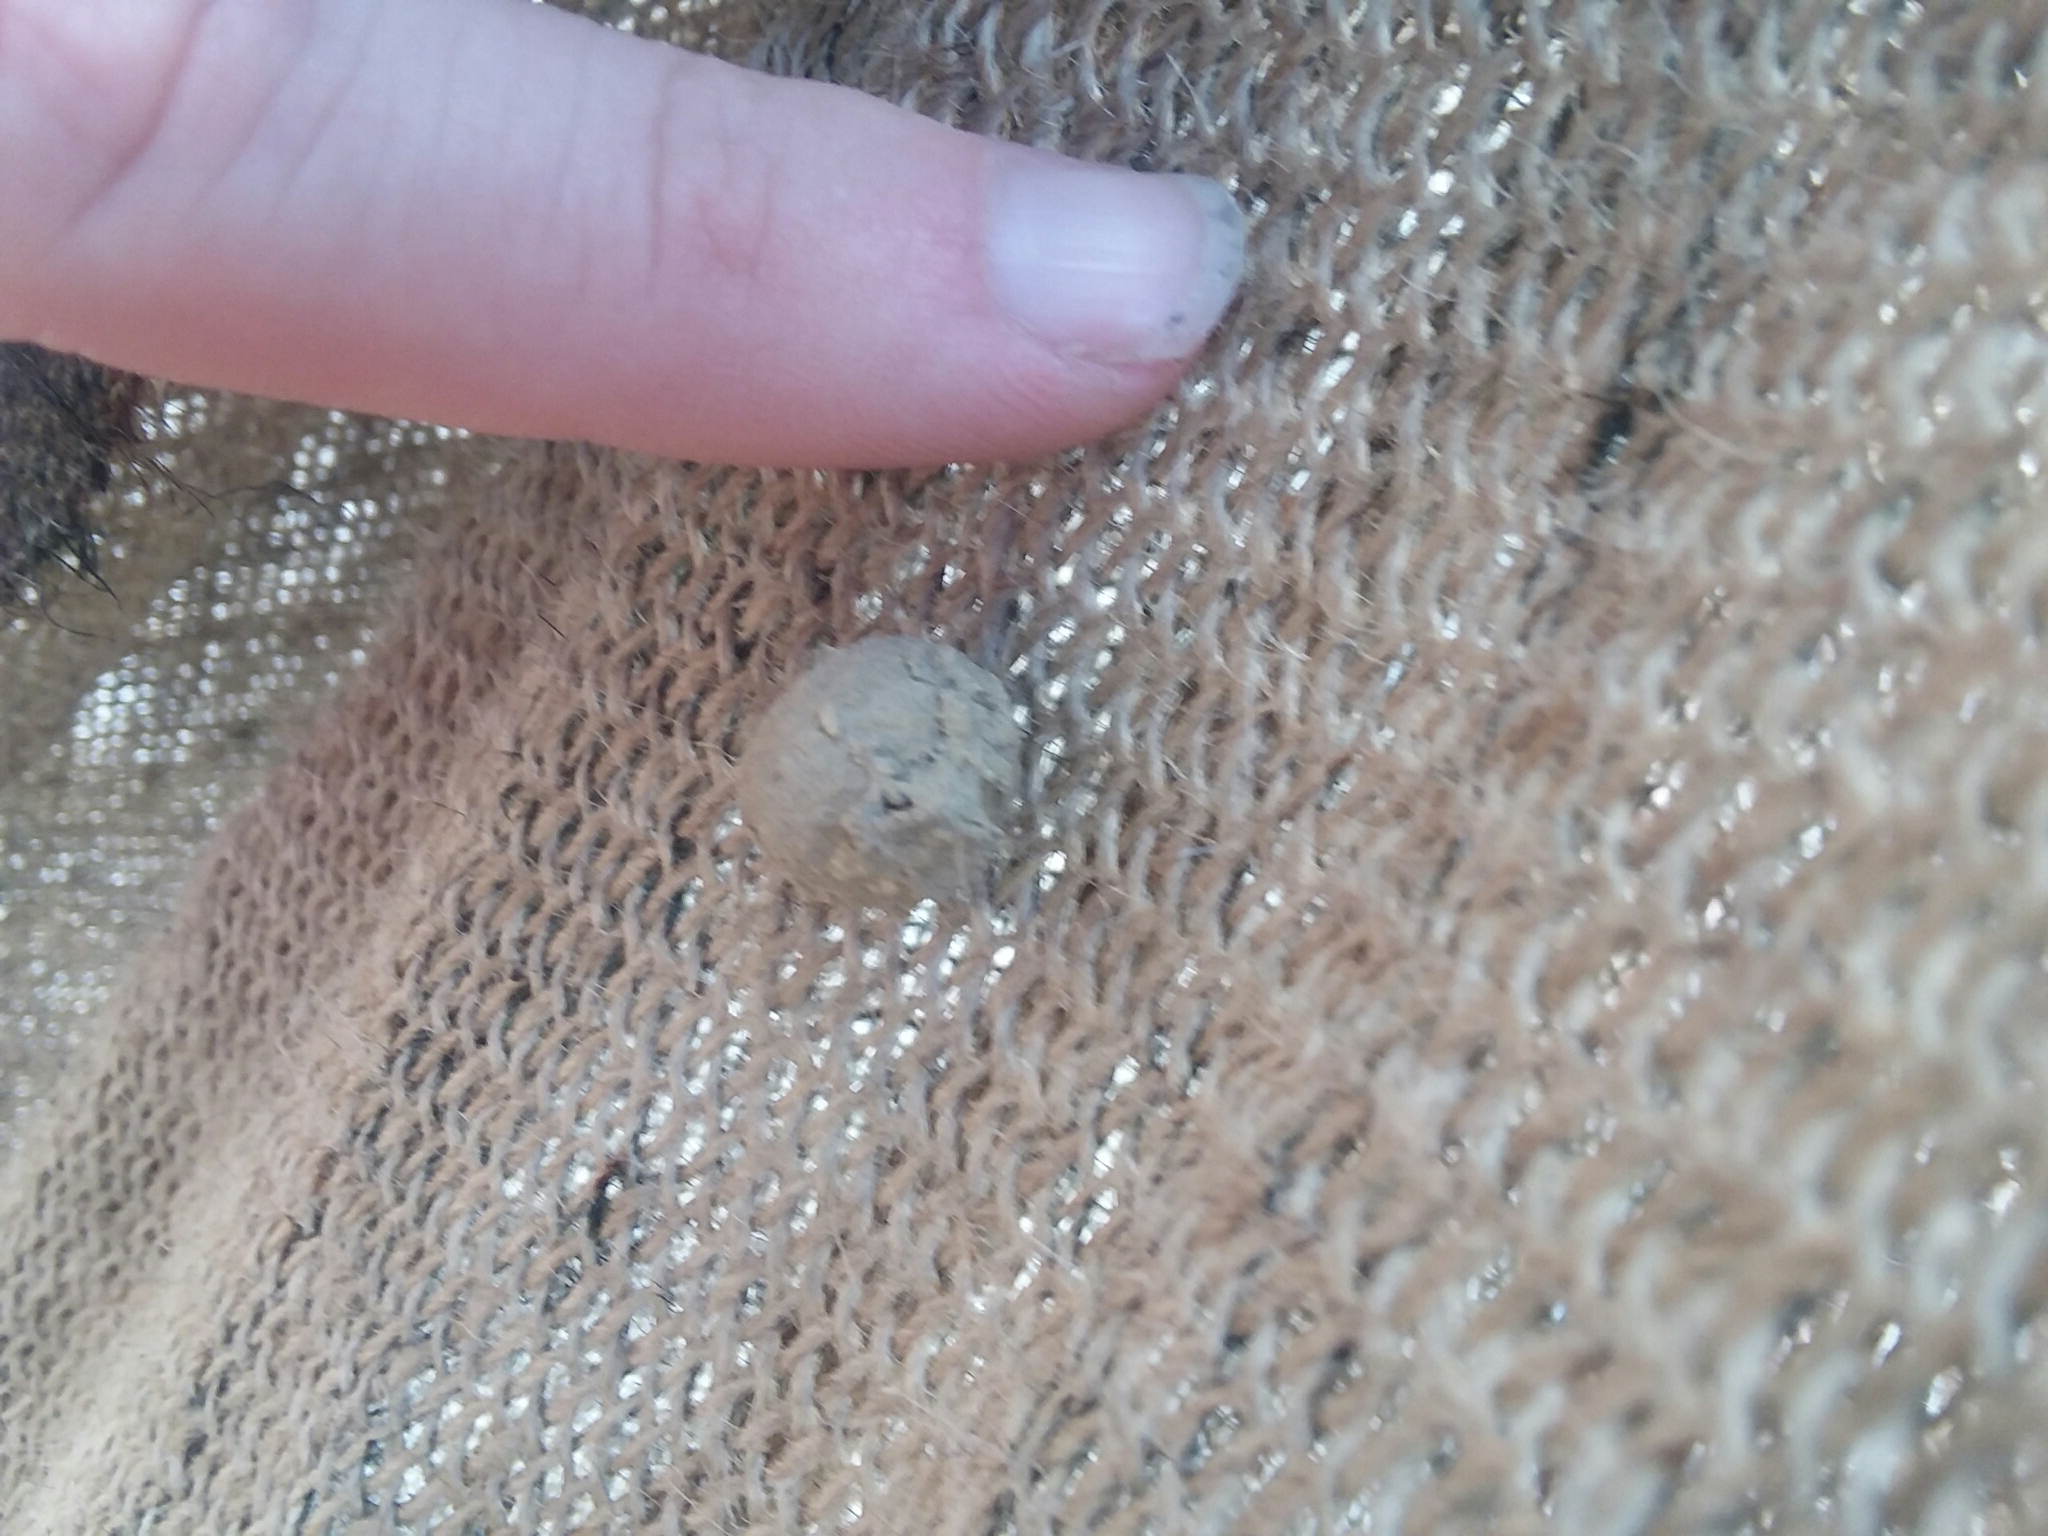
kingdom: Animalia
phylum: Arthropoda
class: Insecta
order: Hymenoptera
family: Vespidae
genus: Eumenes
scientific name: Eumenes
